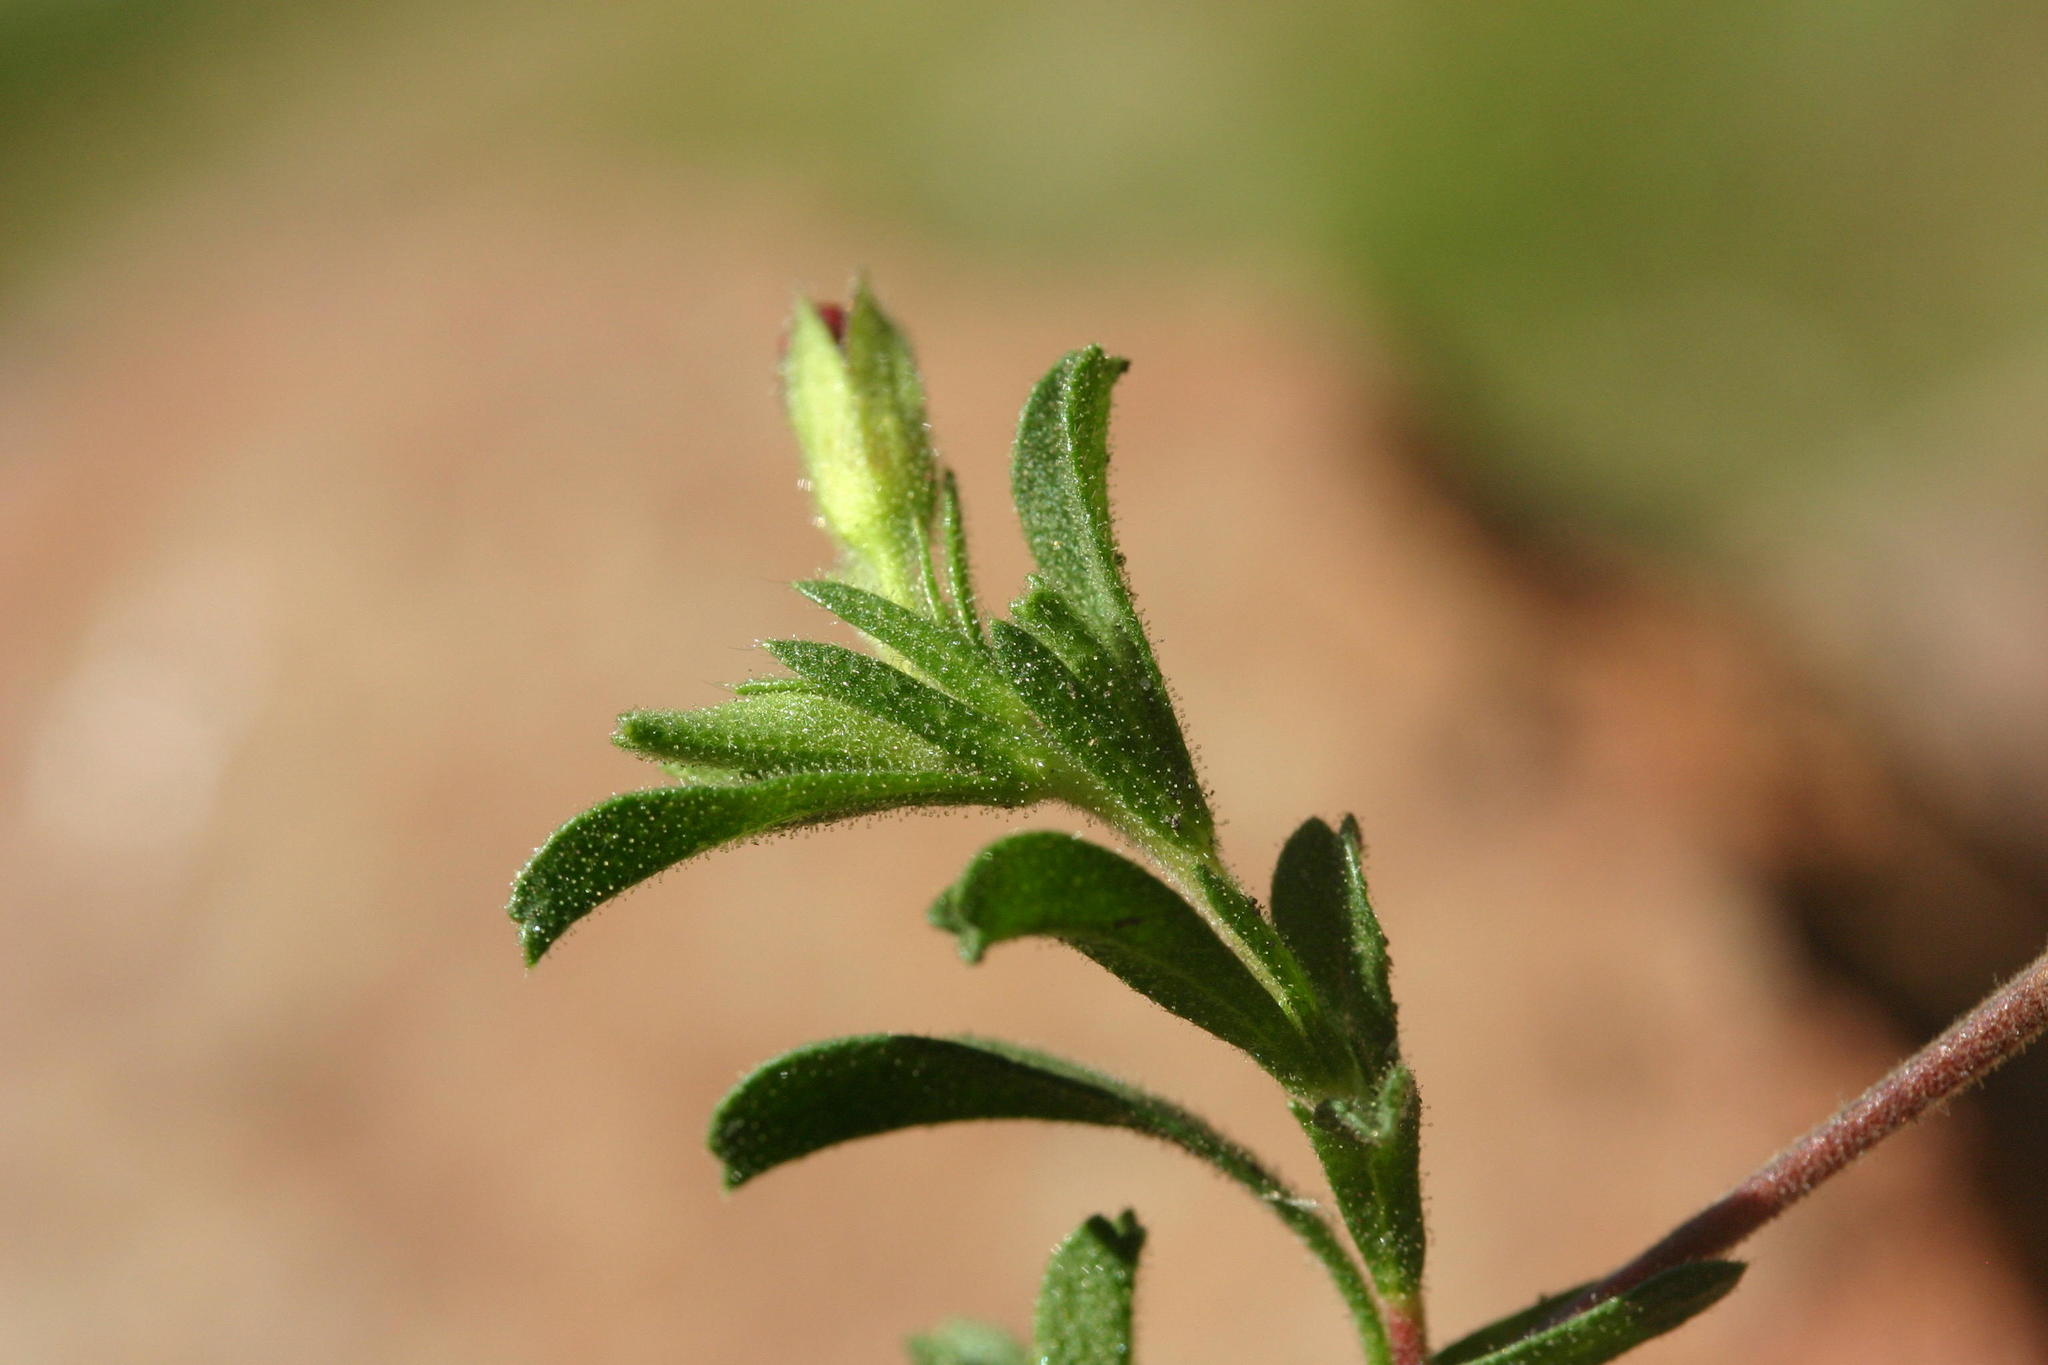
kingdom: Plantae
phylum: Tracheophyta
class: Magnoliopsida
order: Malvales
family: Malvaceae
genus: Hermannia
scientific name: Hermannia flammula
